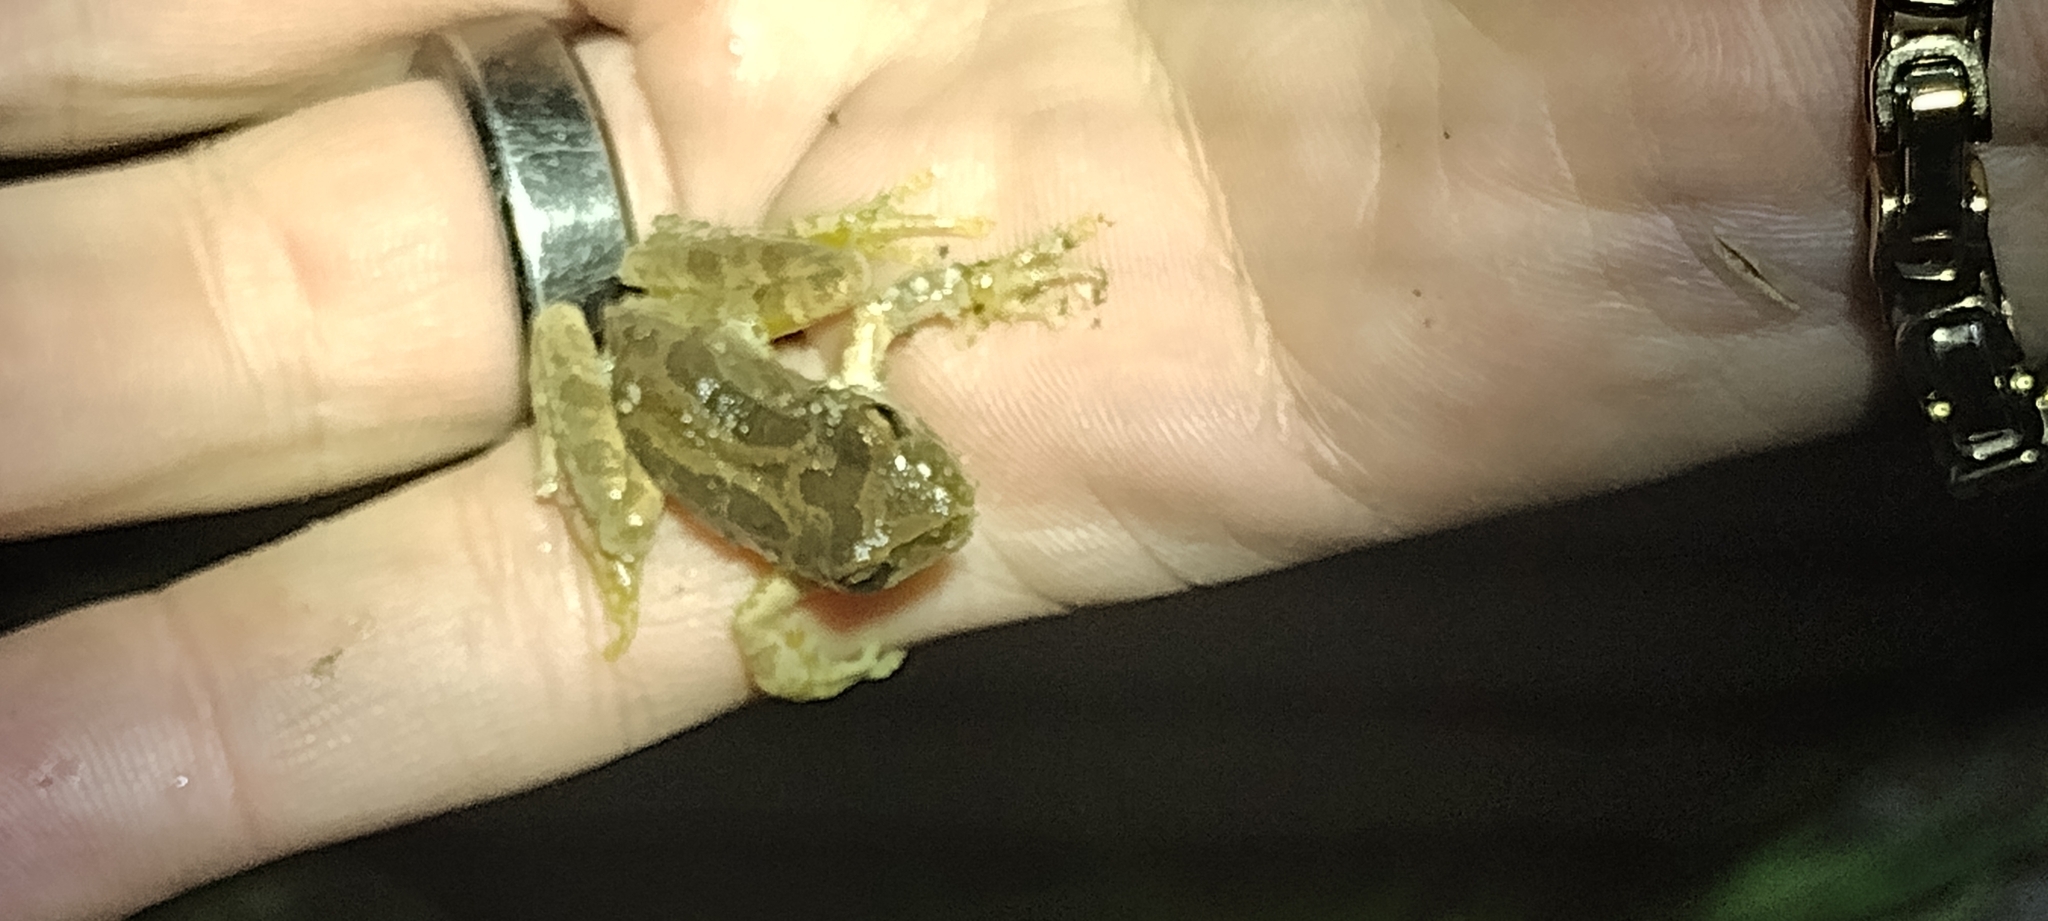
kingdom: Animalia
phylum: Chordata
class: Amphibia
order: Anura
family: Hylidae
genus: Pseudacris
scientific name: Pseudacris regilla
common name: Pacific chorus frog
